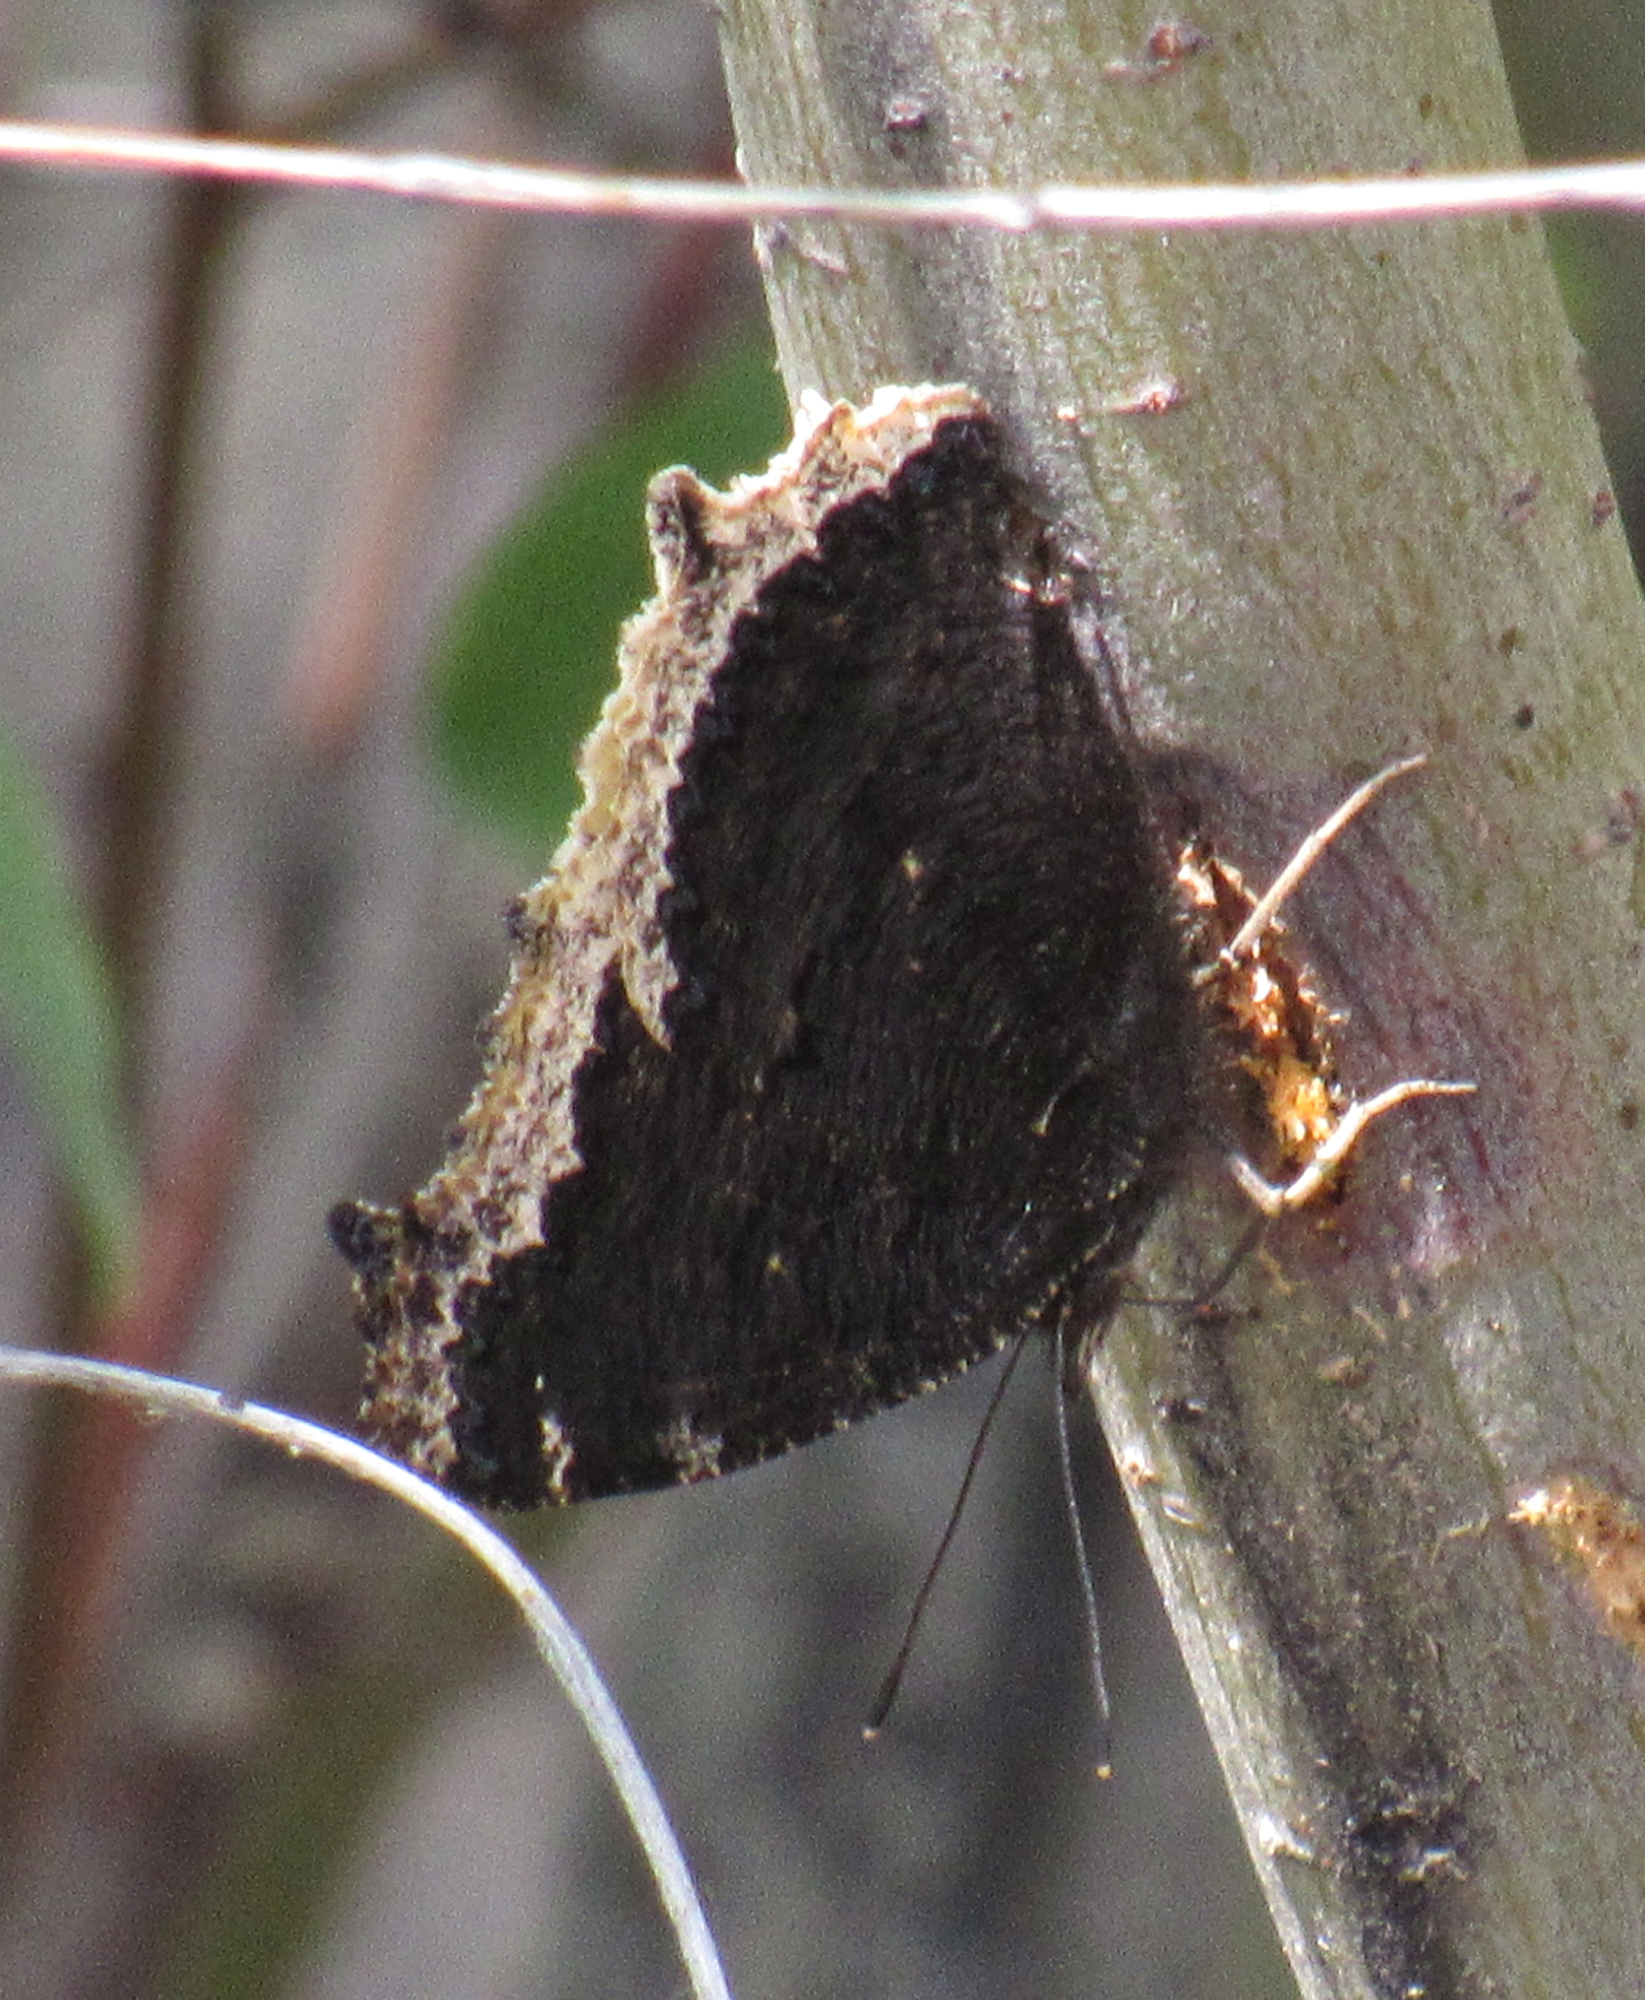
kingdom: Animalia
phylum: Arthropoda
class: Insecta
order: Lepidoptera
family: Nymphalidae
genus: Nymphalis
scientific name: Nymphalis antiopa
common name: Camberwell beauty
